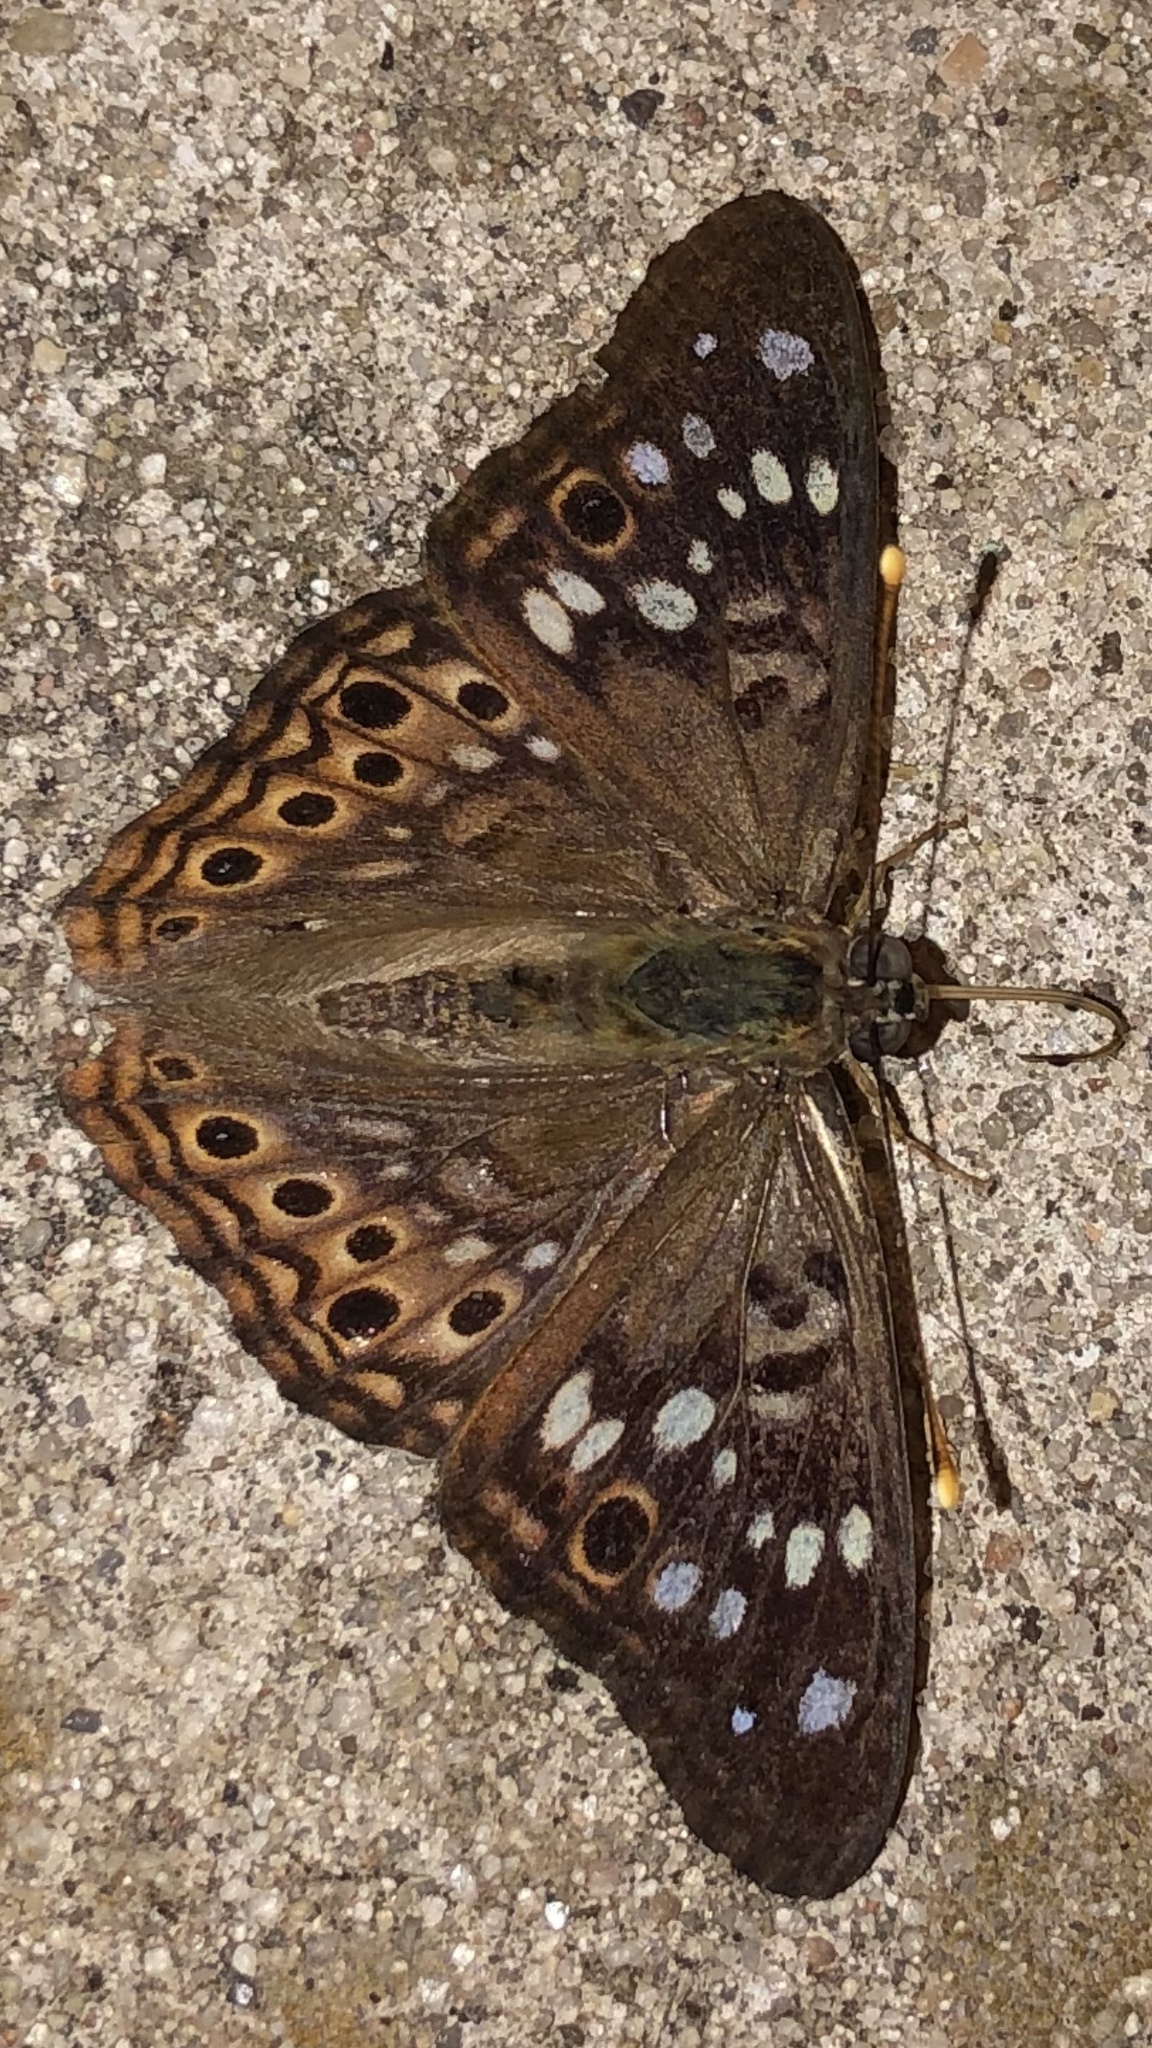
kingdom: Animalia
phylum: Arthropoda
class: Insecta
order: Lepidoptera
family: Nymphalidae
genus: Asterocampa
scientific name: Asterocampa celtis
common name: Hackberry emperor
